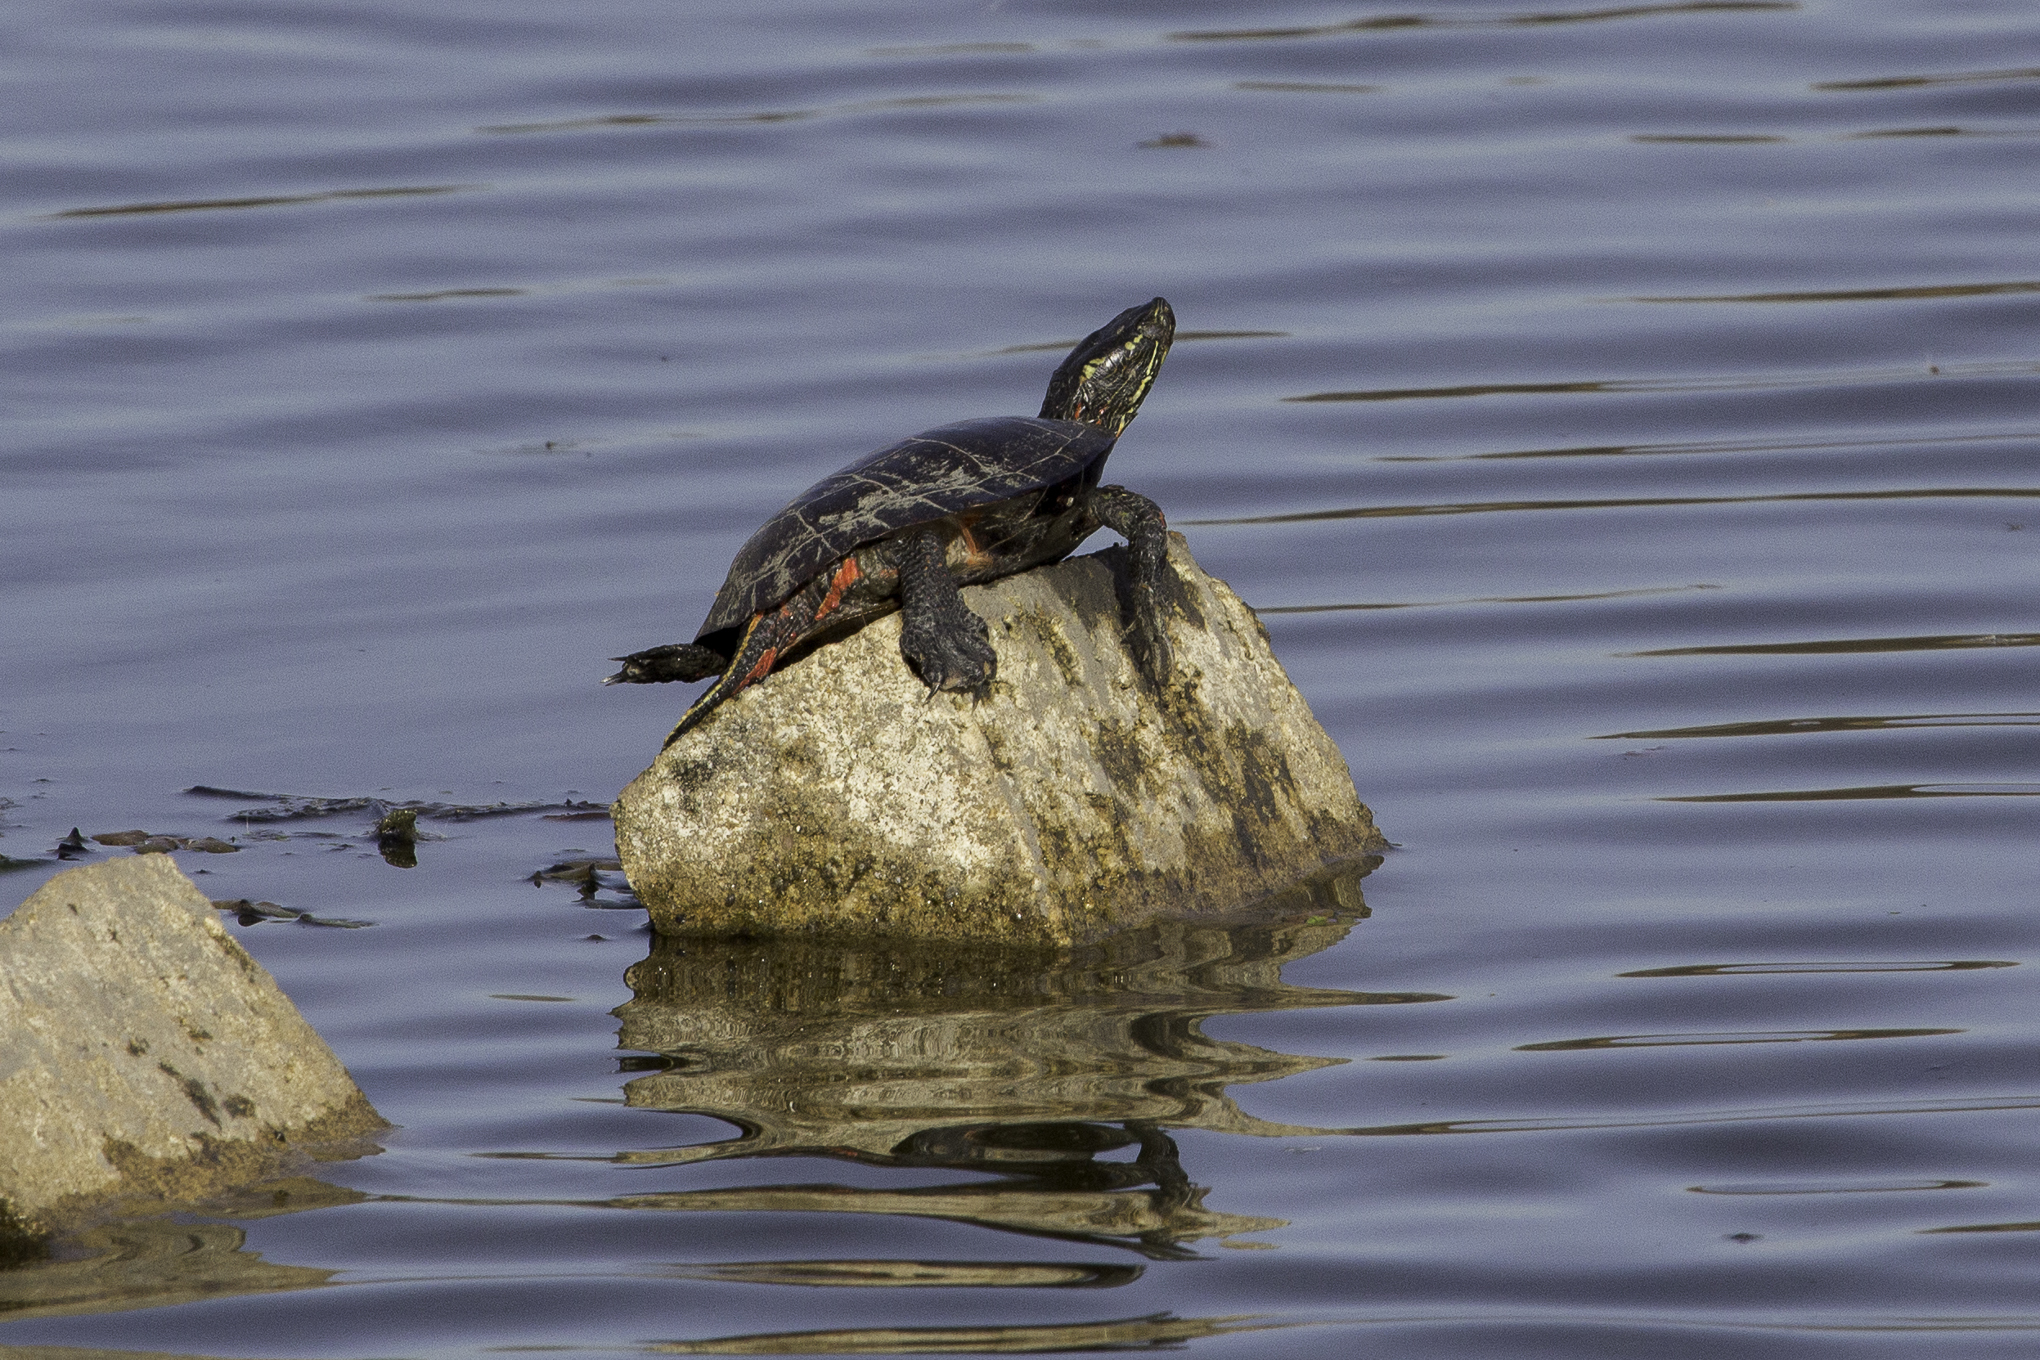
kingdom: Animalia
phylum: Chordata
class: Testudines
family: Emydidae
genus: Chrysemys
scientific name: Chrysemys picta
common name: Painted turtle
